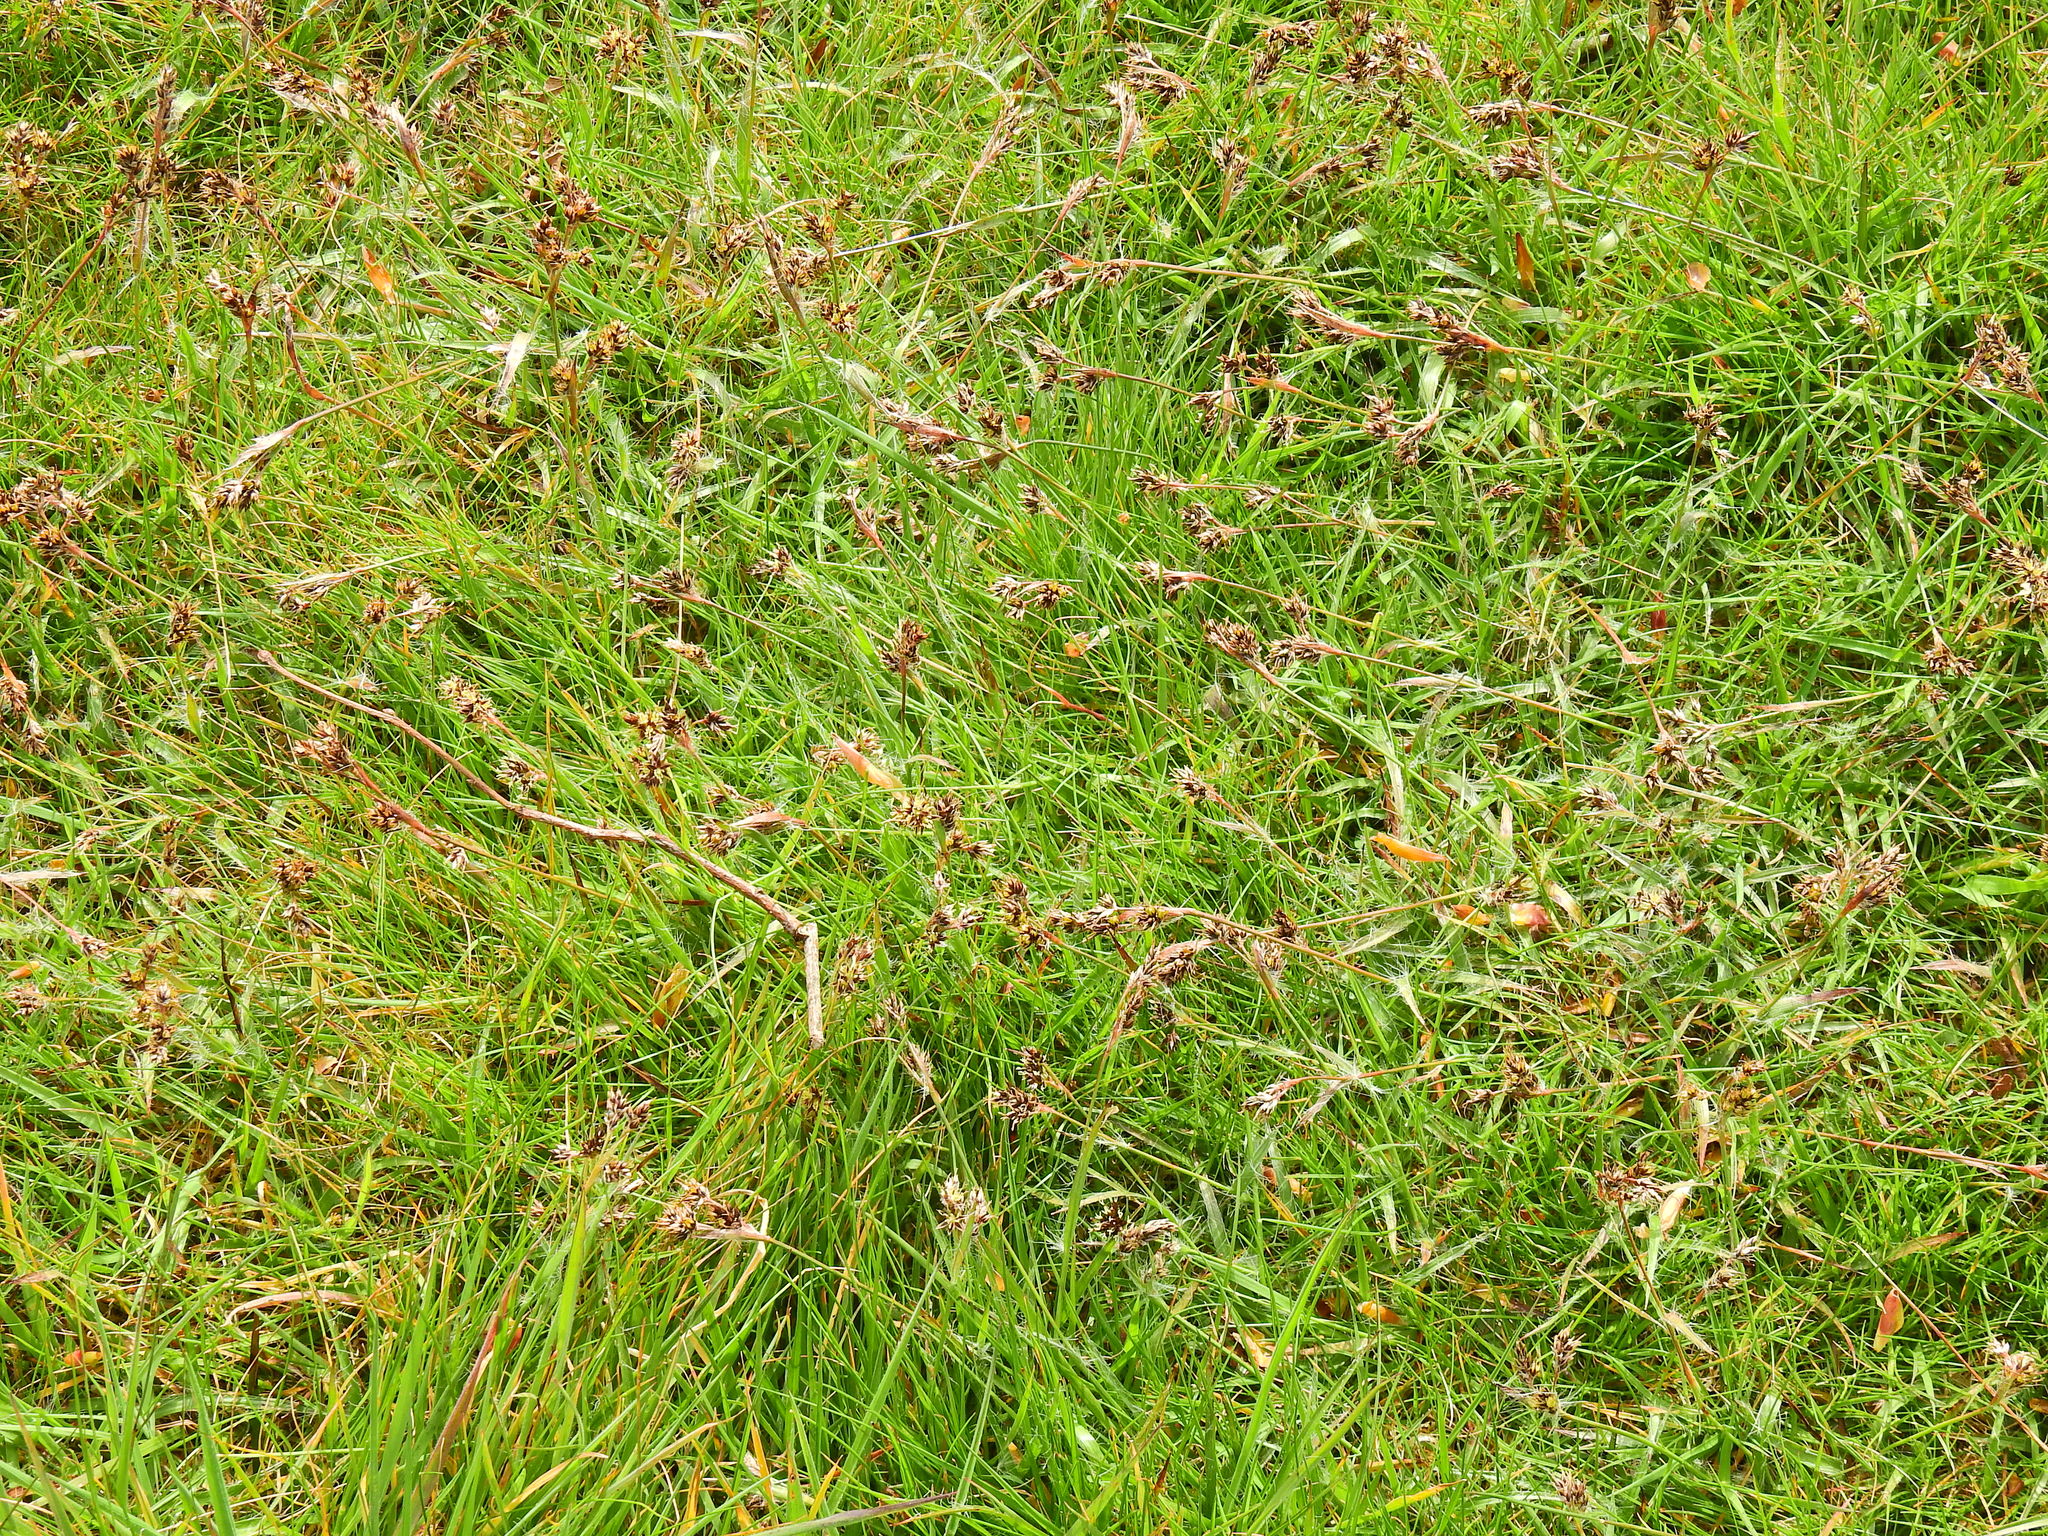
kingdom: Plantae
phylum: Tracheophyta
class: Liliopsida
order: Poales
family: Juncaceae
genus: Luzula
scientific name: Luzula campestris
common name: Field wood-rush
